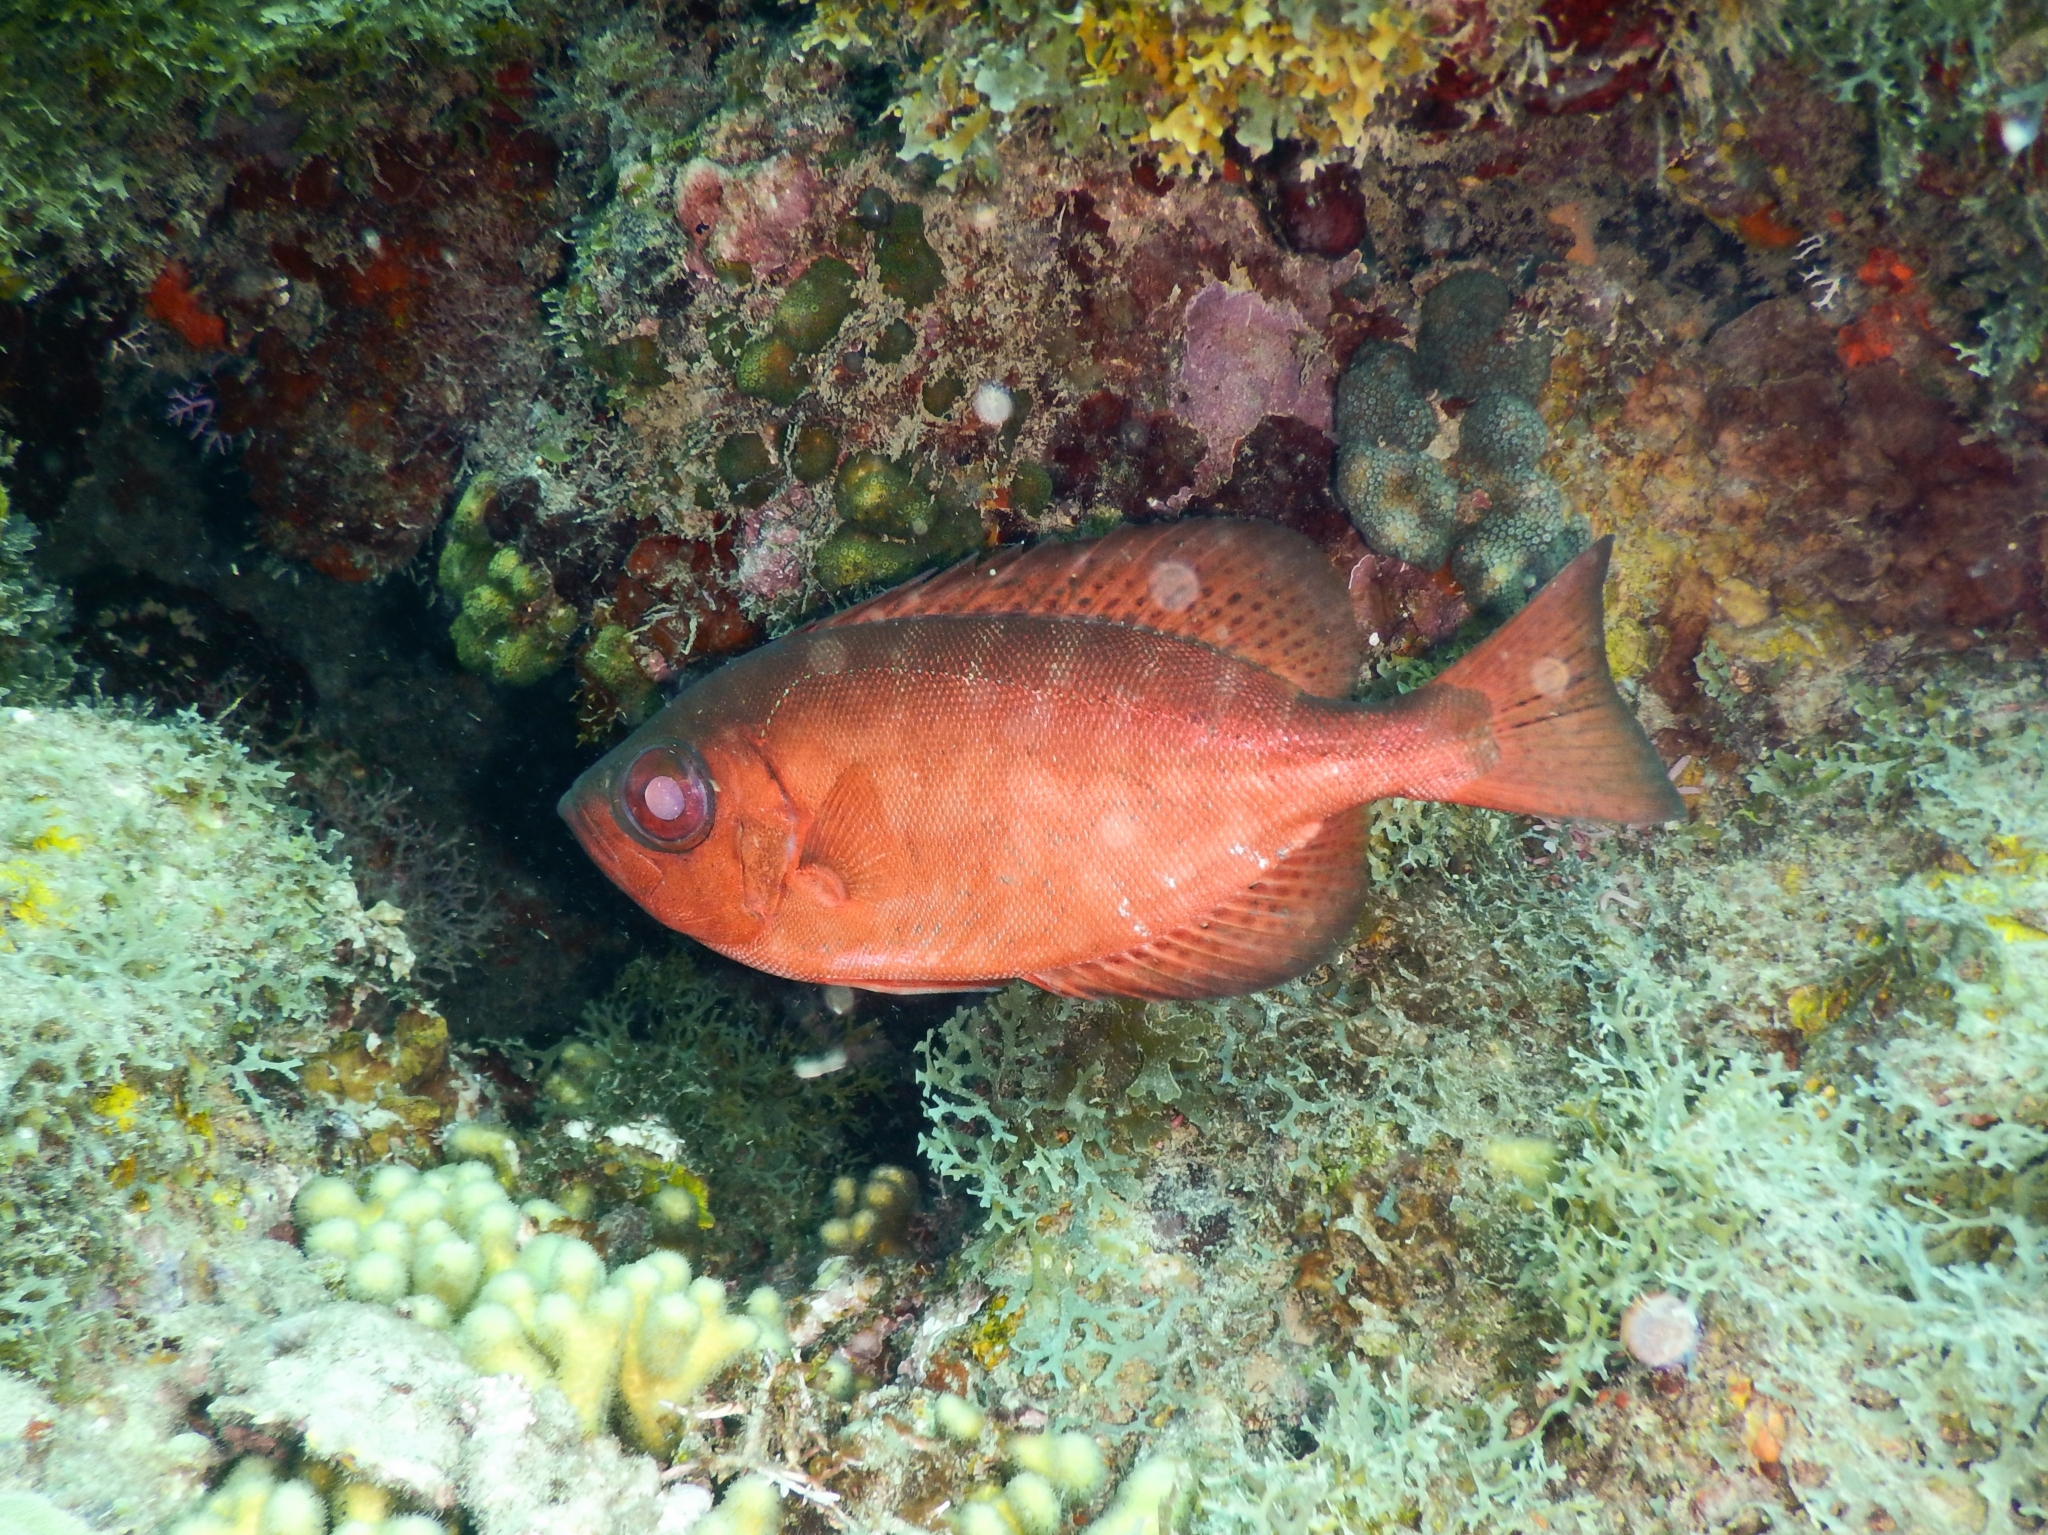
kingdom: Animalia
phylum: Chordata
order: Perciformes
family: Priacanthidae
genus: Heteropriacanthus
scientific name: Heteropriacanthus cruentatus
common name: Glasseye
